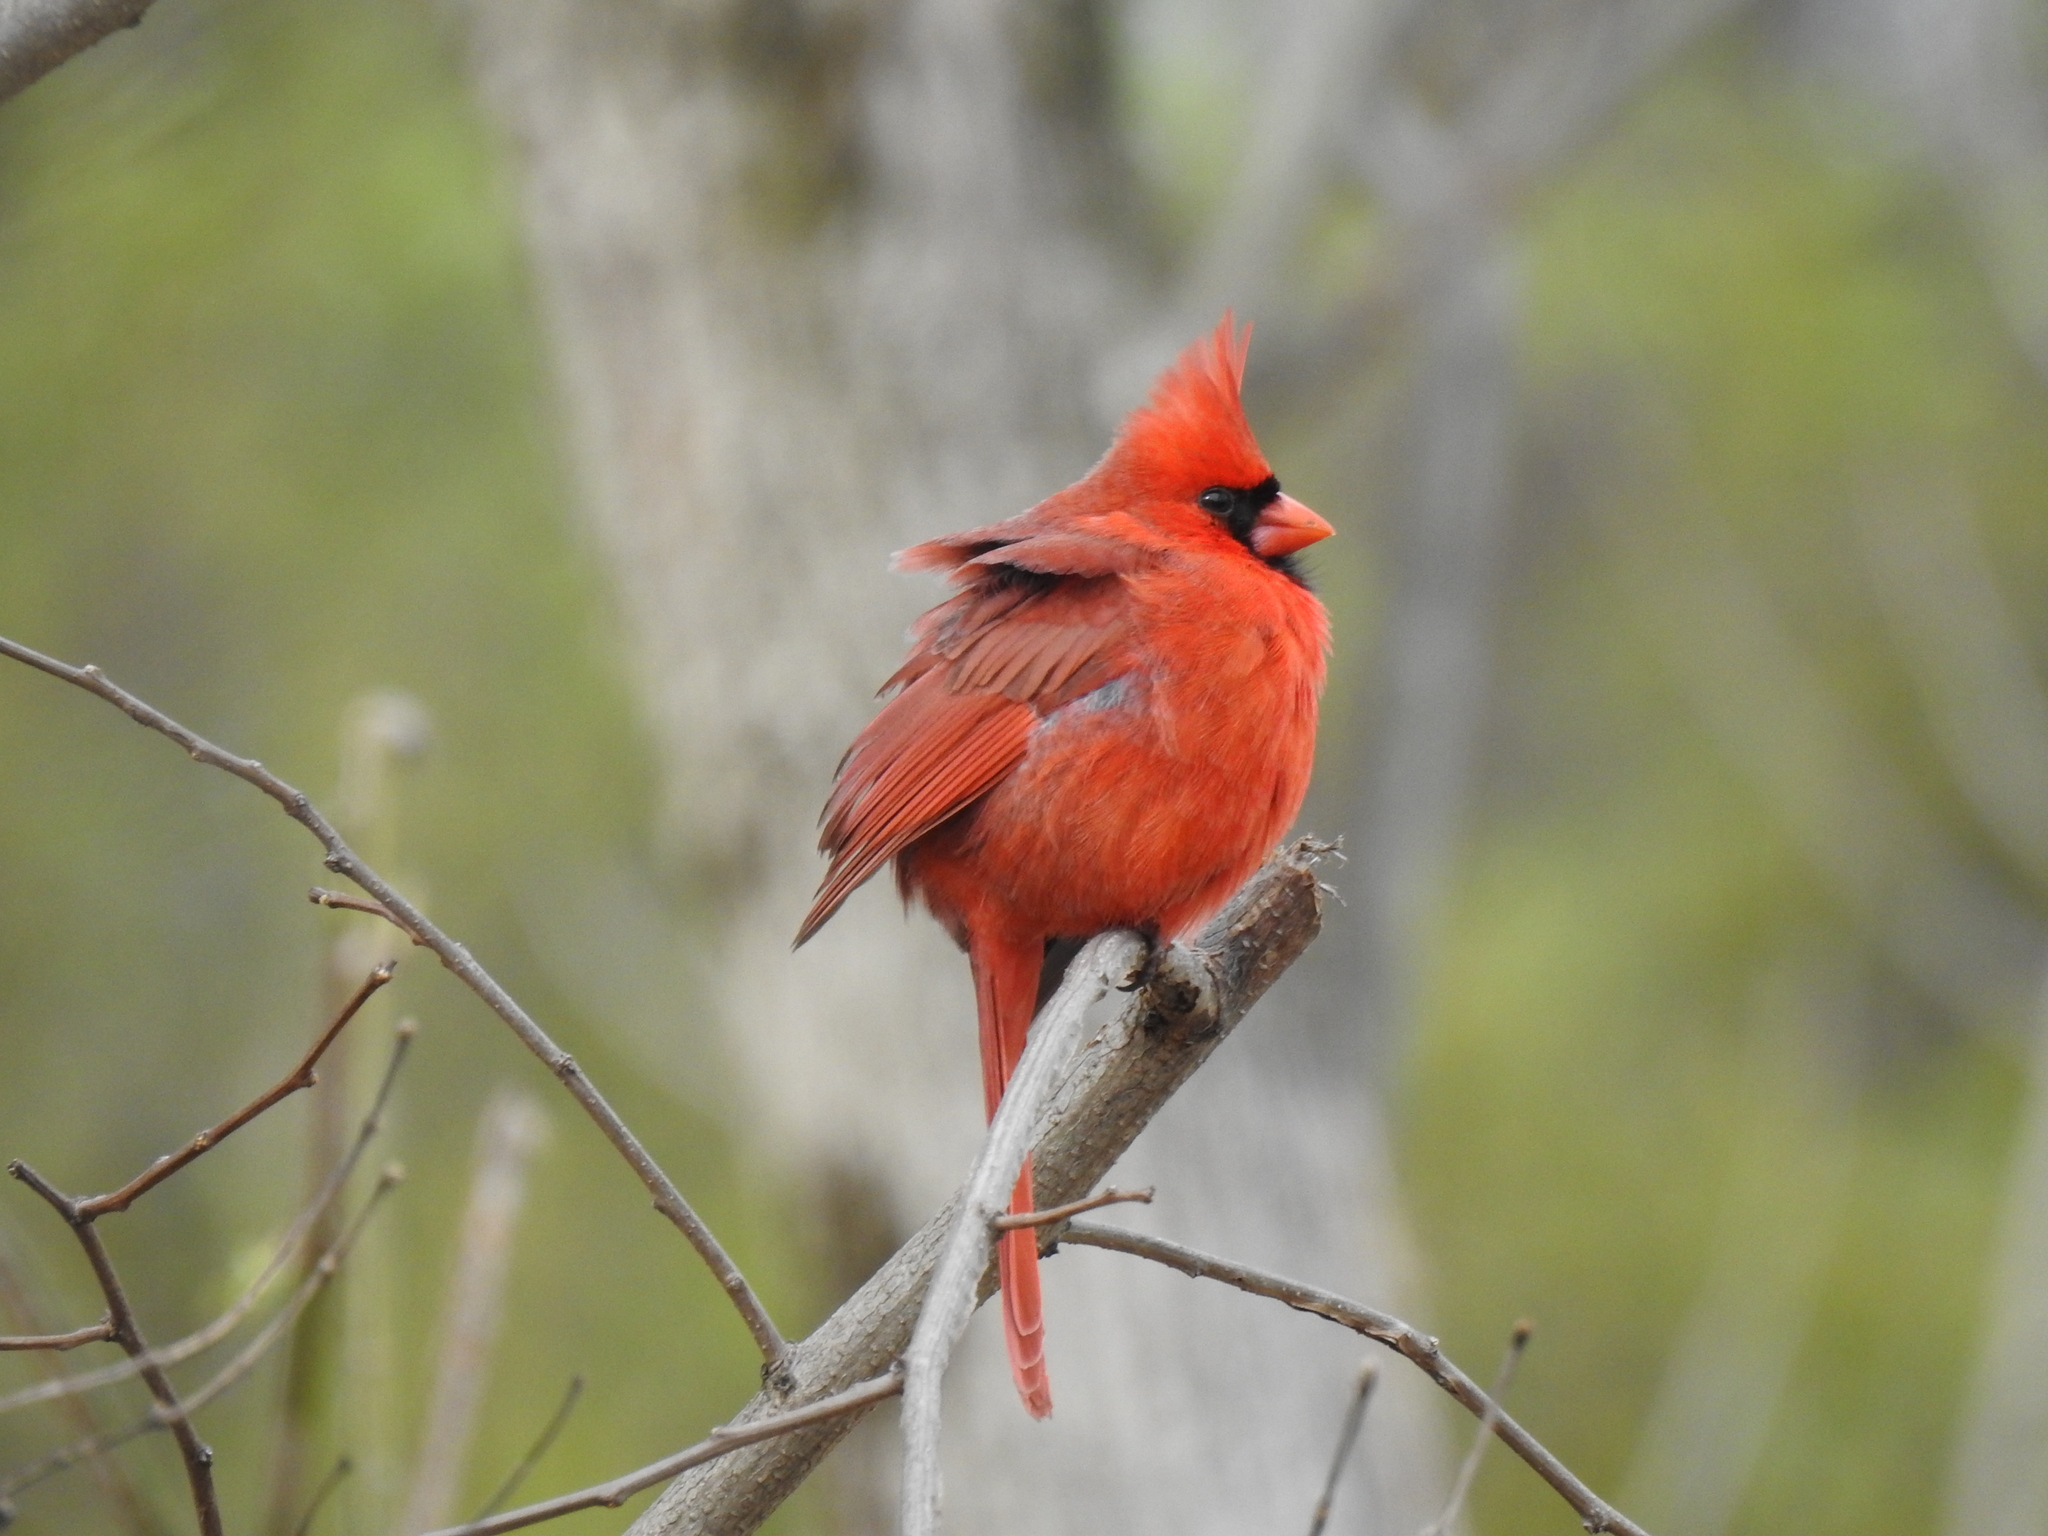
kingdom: Animalia
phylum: Chordata
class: Aves
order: Passeriformes
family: Cardinalidae
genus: Cardinalis
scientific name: Cardinalis cardinalis
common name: Northern cardinal
